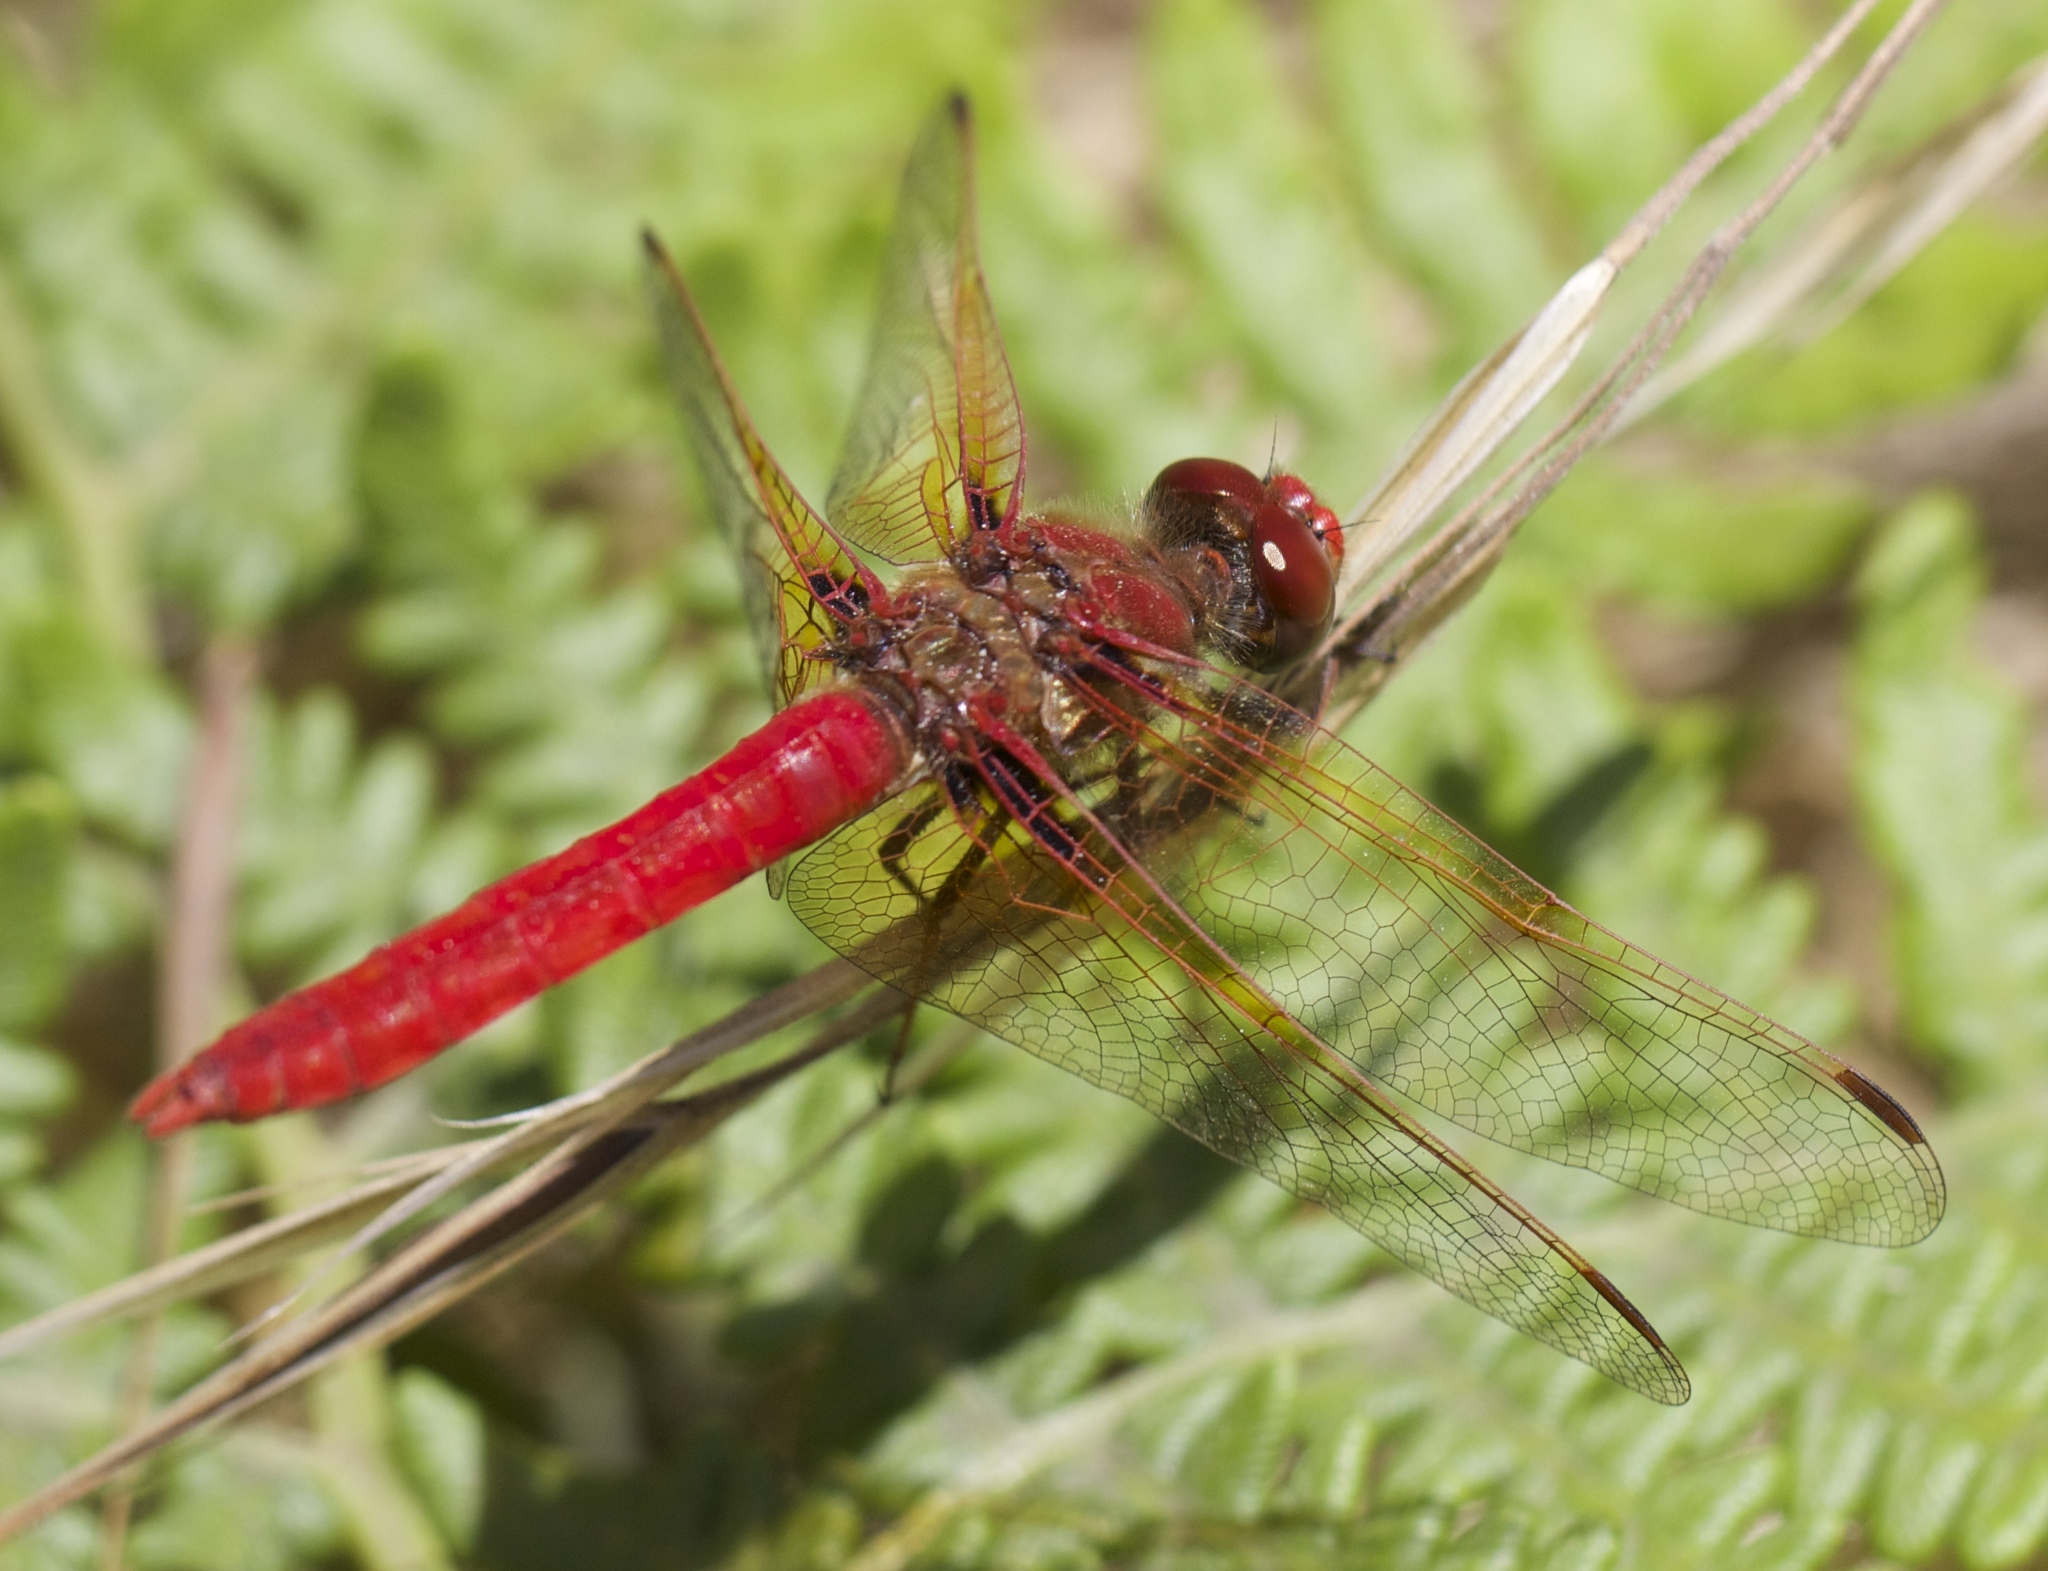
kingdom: Animalia
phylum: Arthropoda
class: Insecta
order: Odonata
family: Libellulidae
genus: Sympetrum
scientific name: Sympetrum illotum
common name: Cardinal meadowhawk
